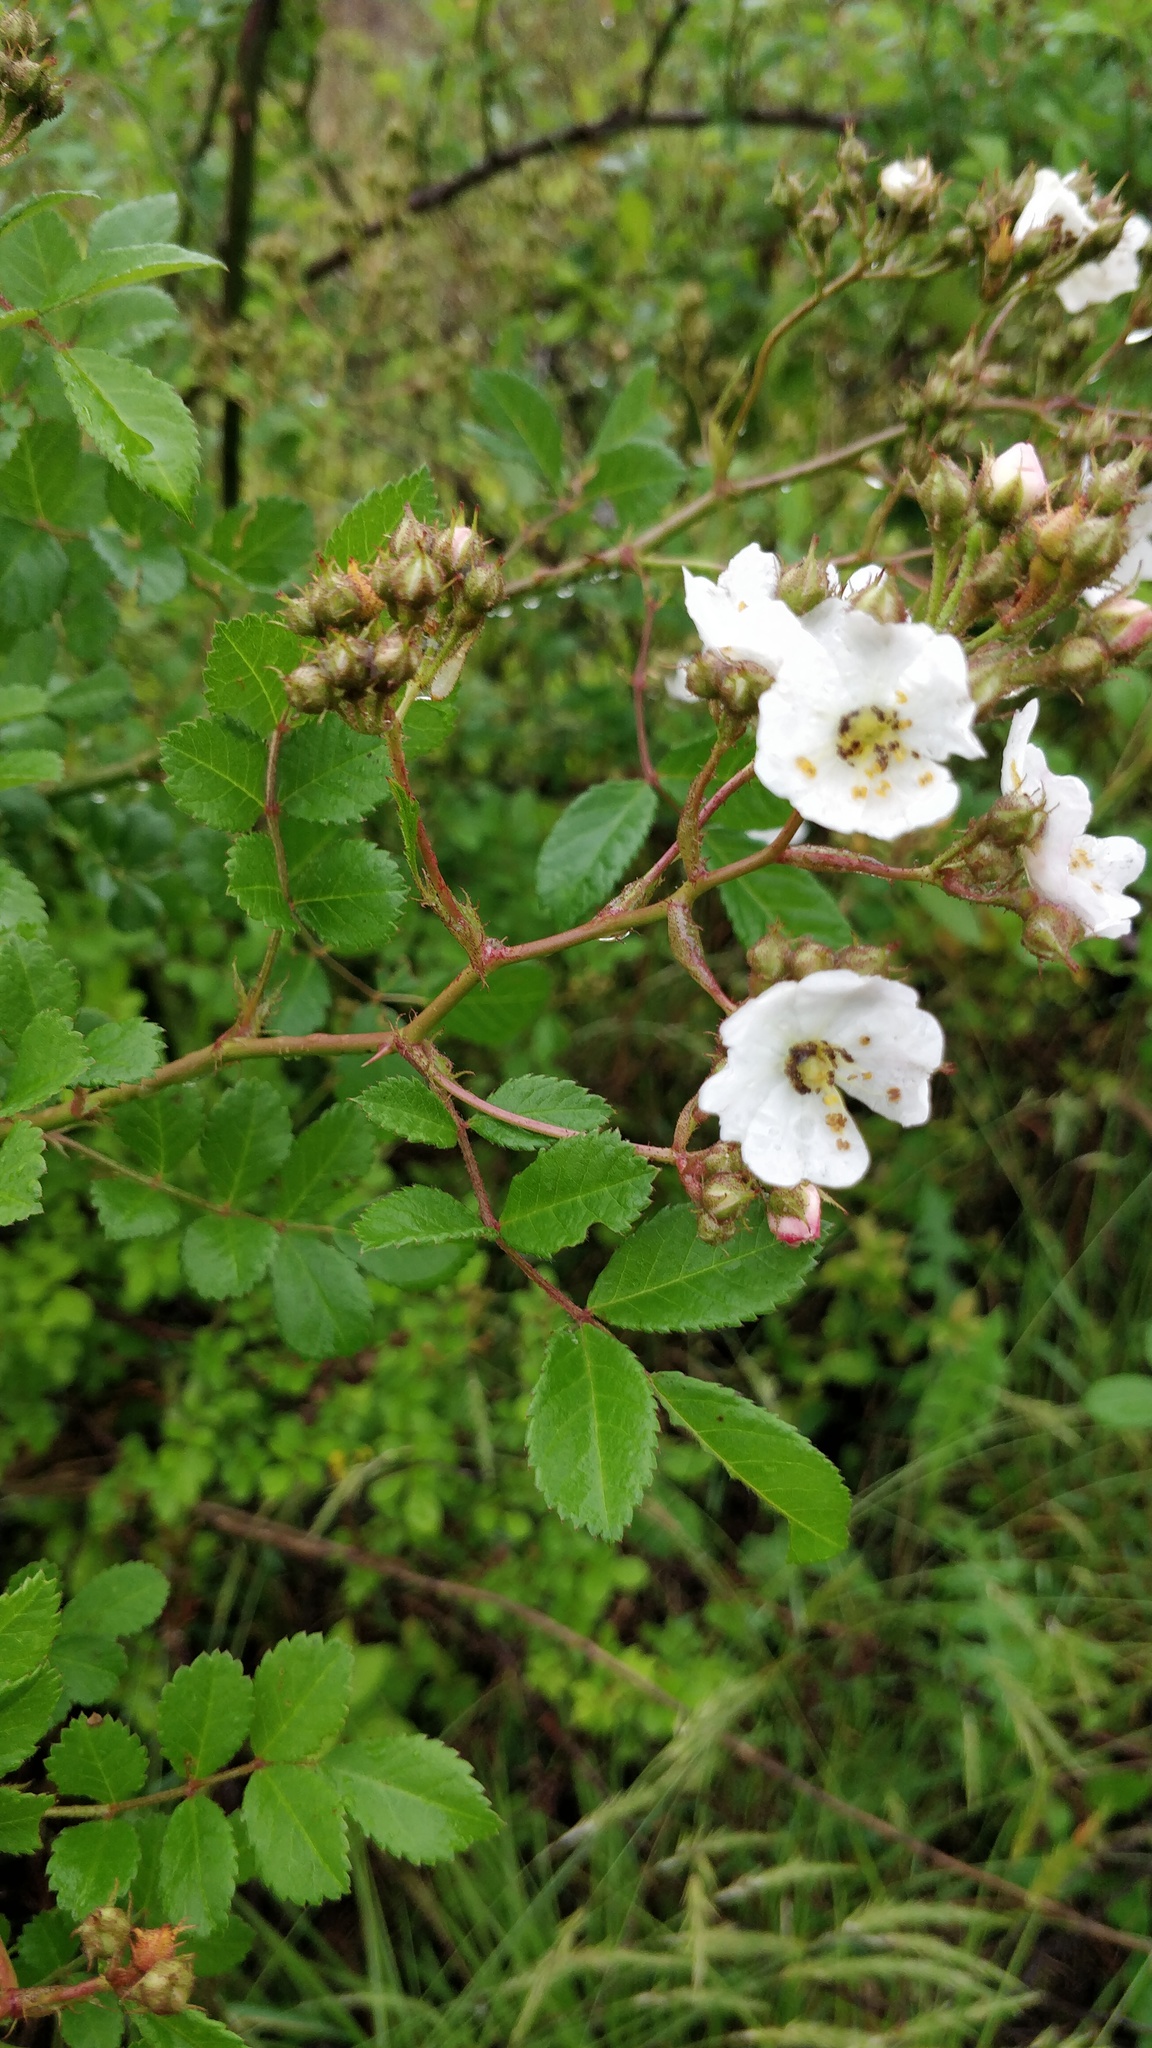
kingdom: Plantae
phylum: Tracheophyta
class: Magnoliopsida
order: Rosales
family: Rosaceae
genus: Rosa
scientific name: Rosa multiflora
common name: Multiflora rose
